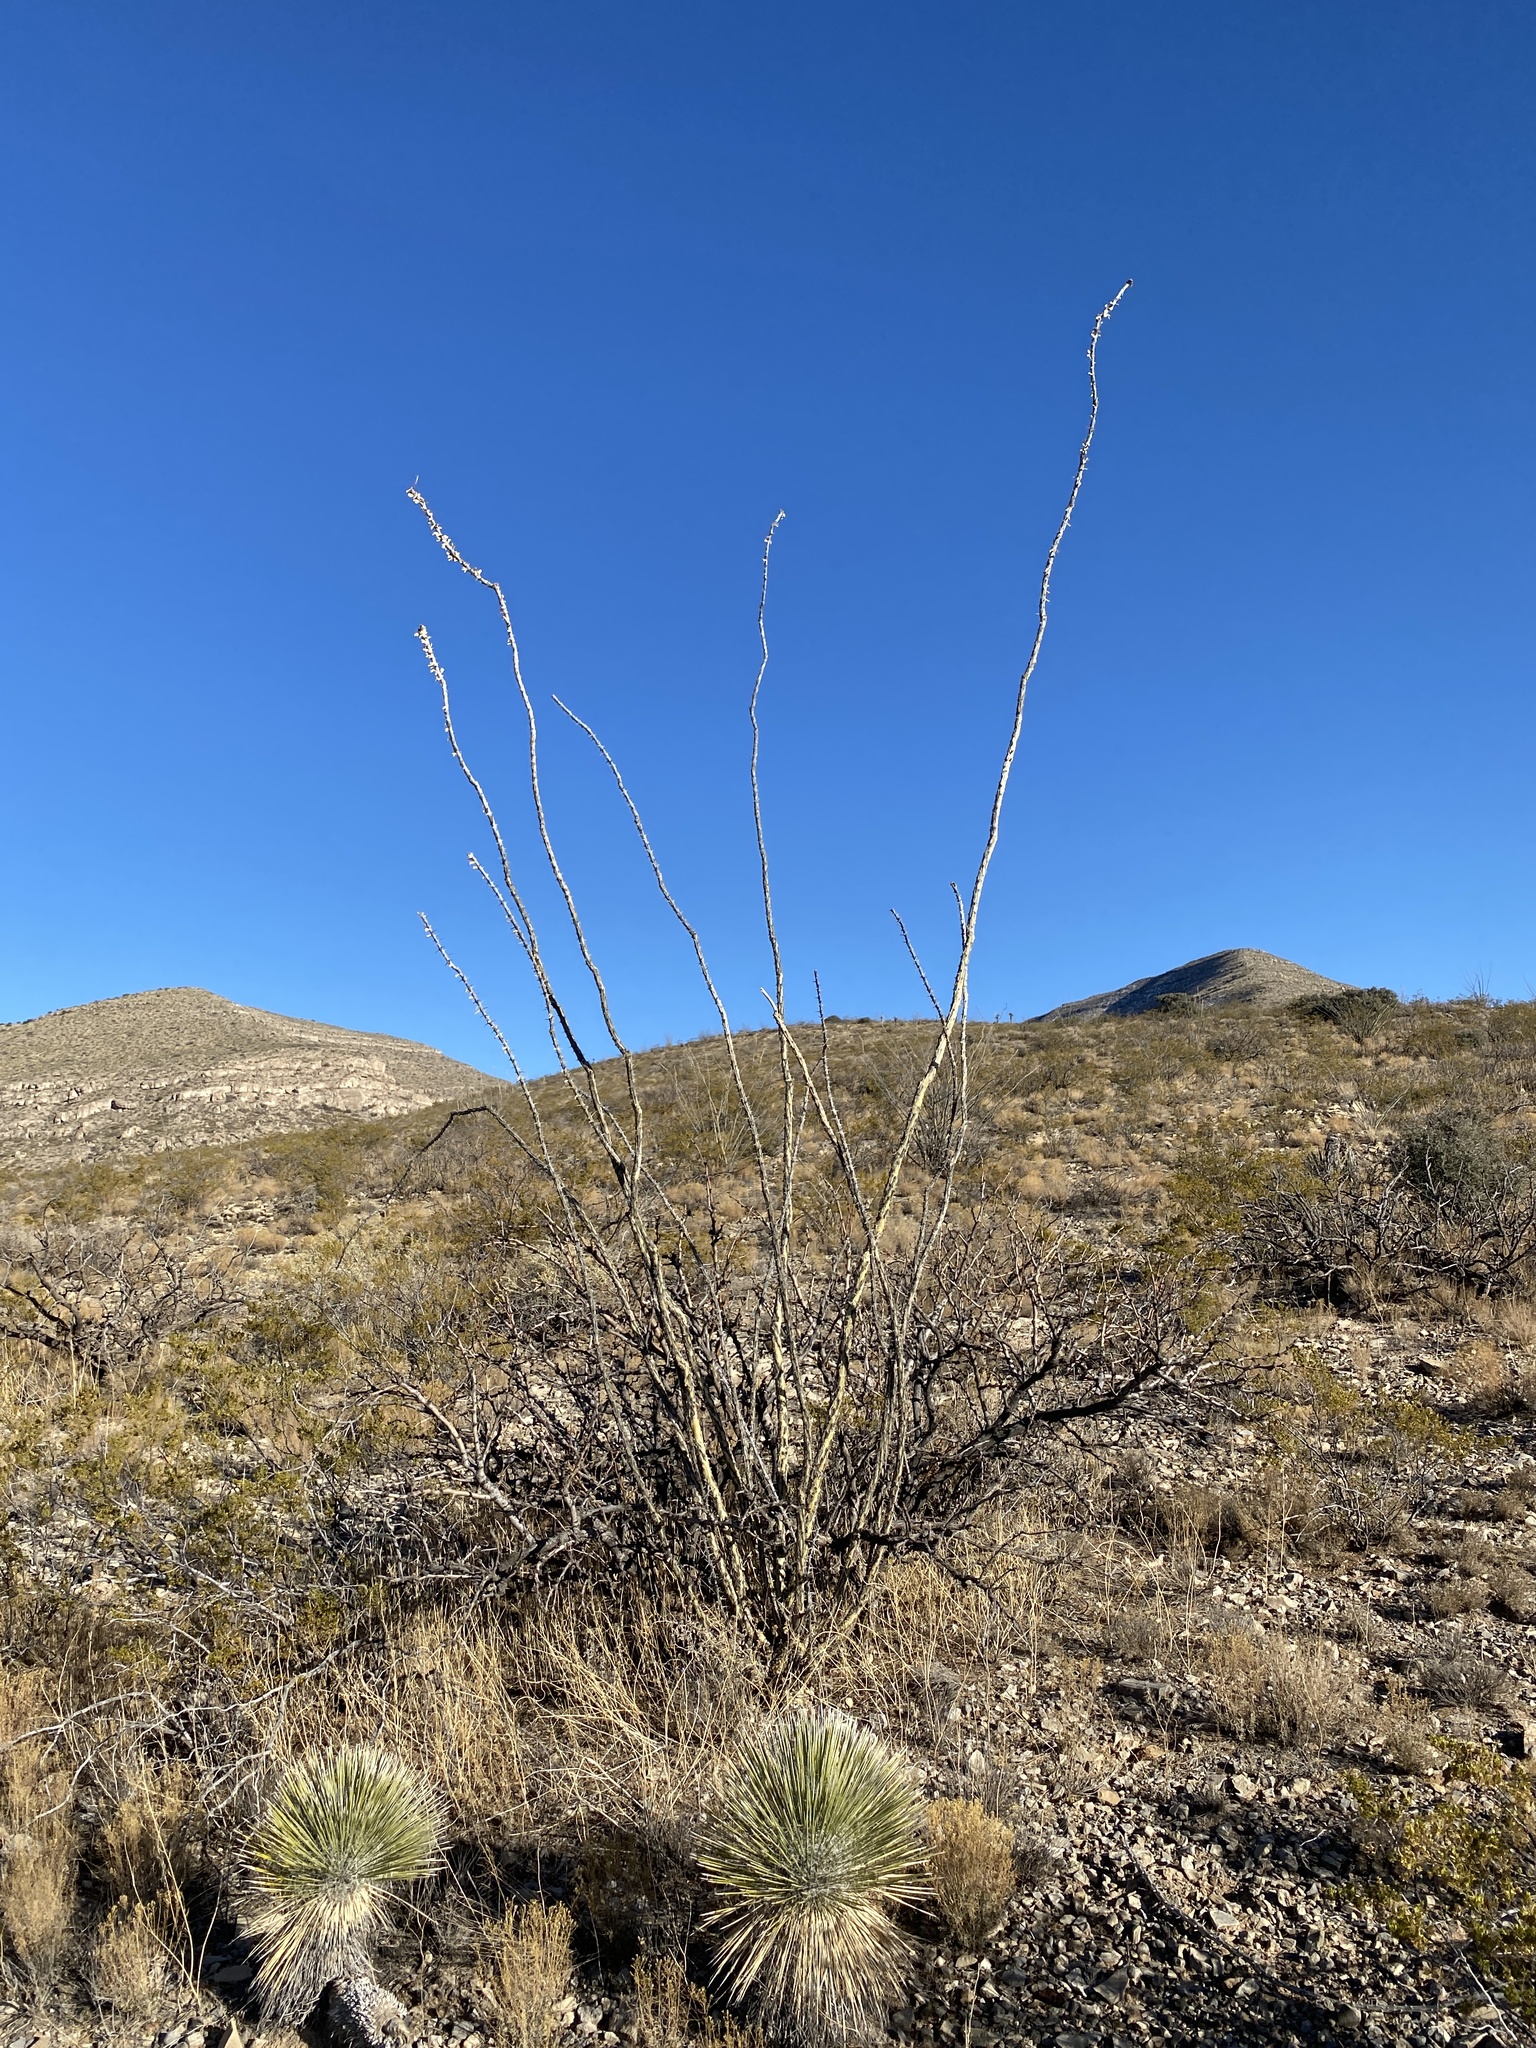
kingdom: Plantae
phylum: Tracheophyta
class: Liliopsida
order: Asparagales
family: Asparagaceae
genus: Yucca
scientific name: Yucca elata
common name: Palmella
